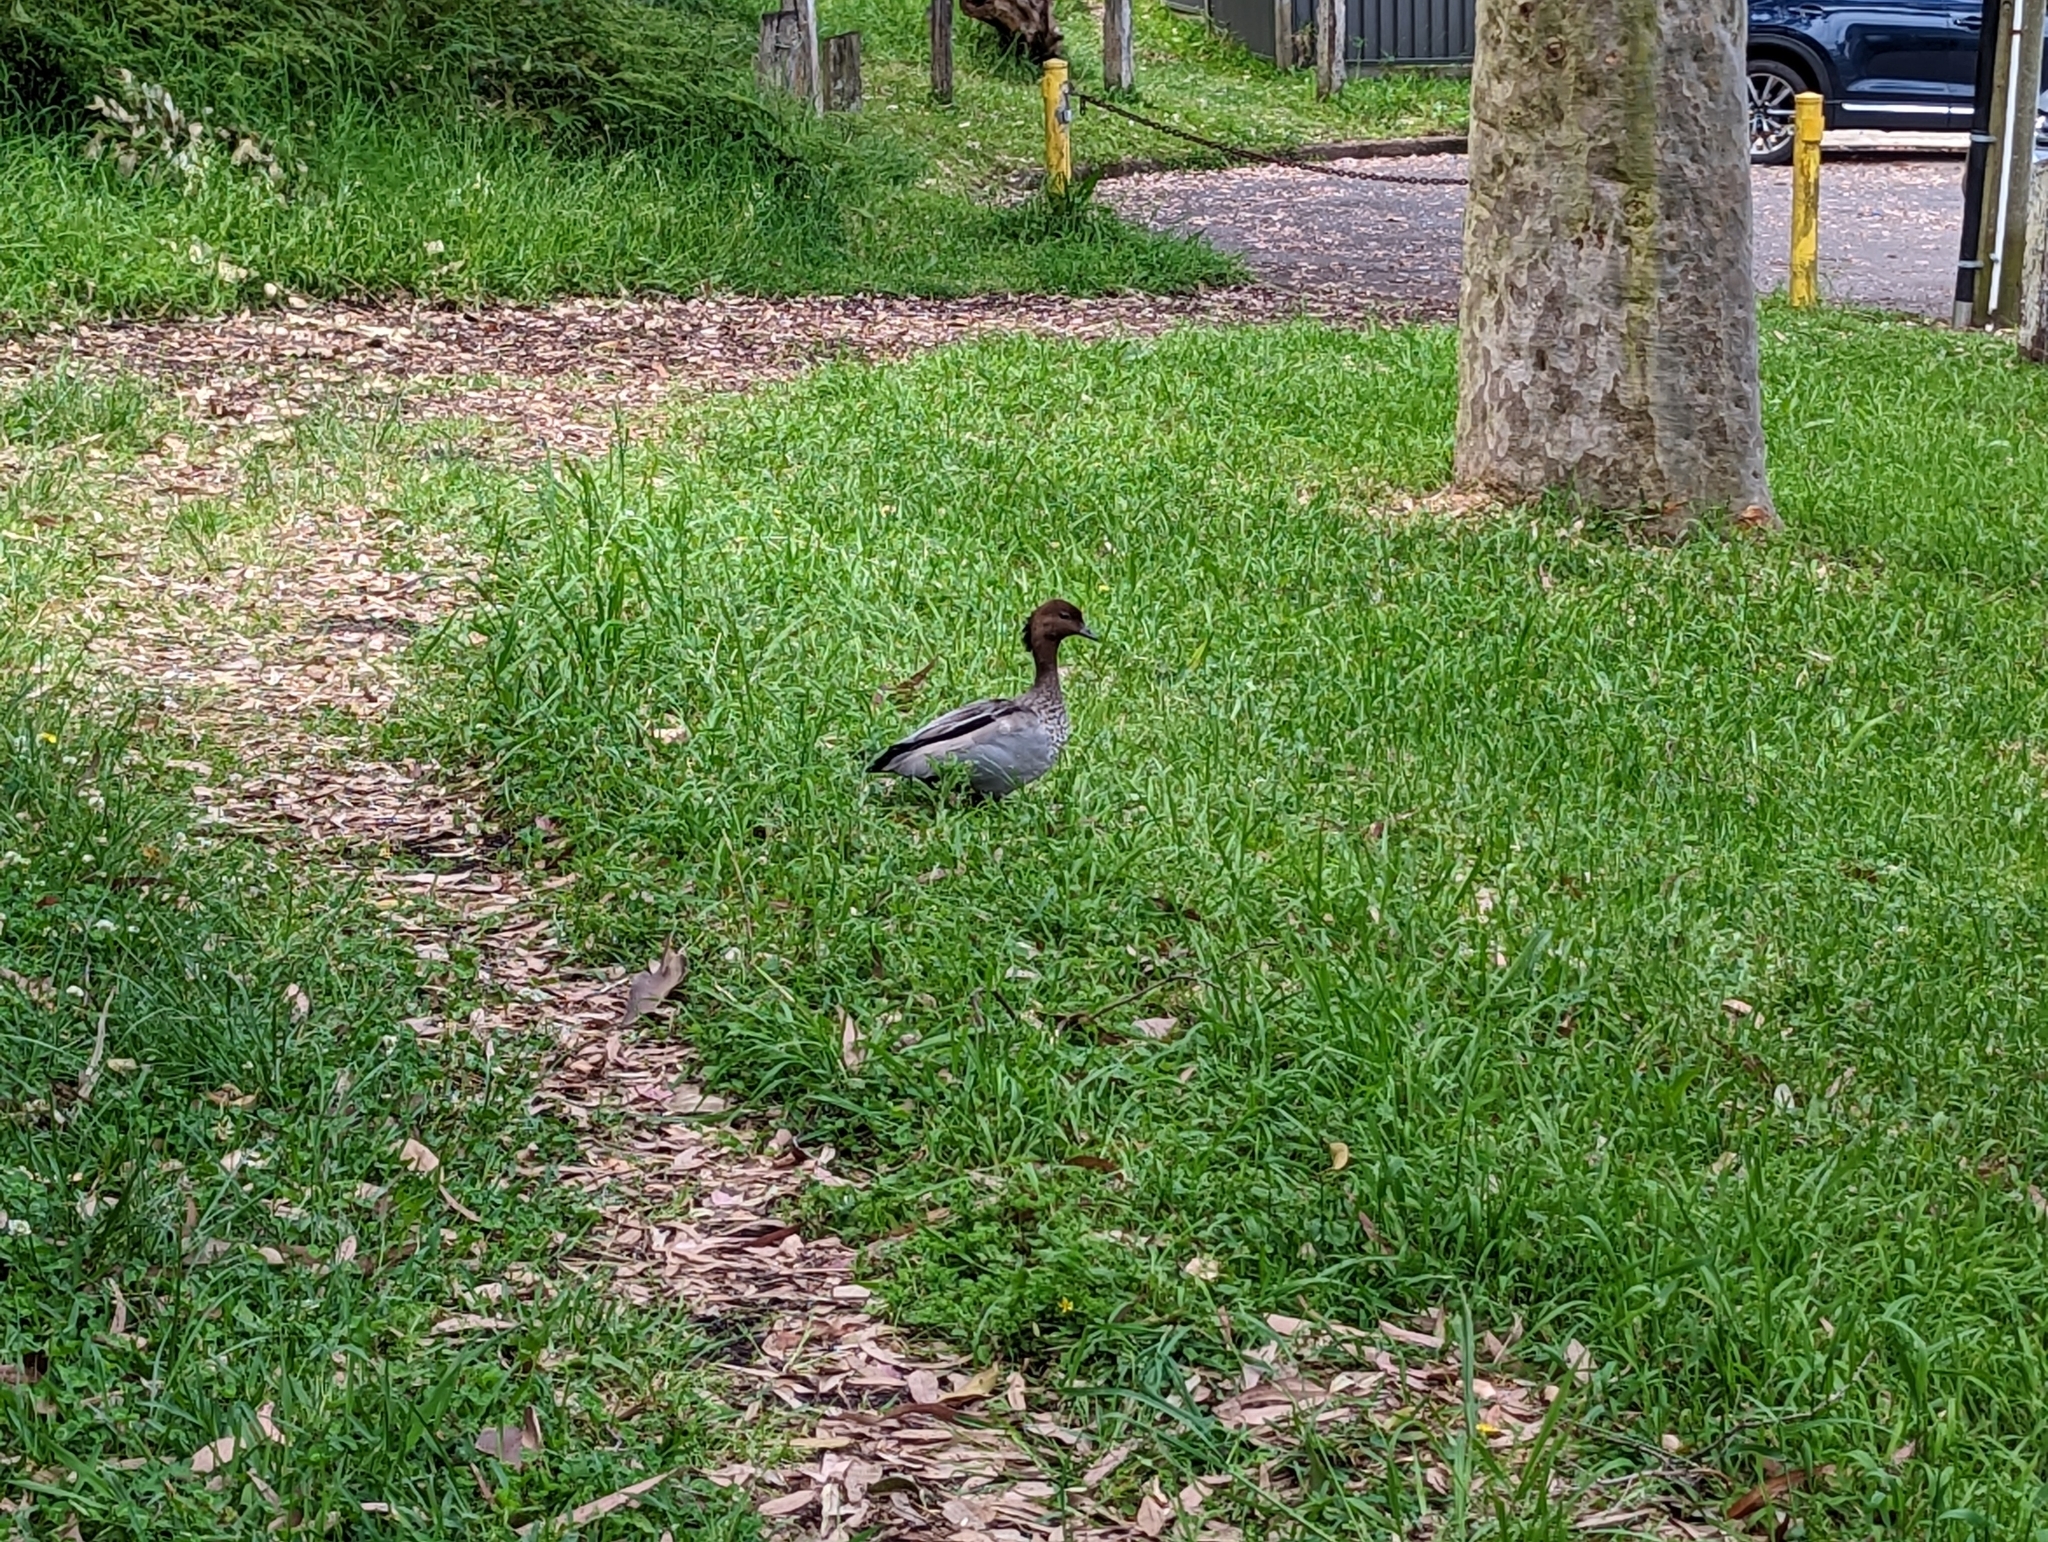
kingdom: Animalia
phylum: Chordata
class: Aves
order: Anseriformes
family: Anatidae
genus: Chenonetta
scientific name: Chenonetta jubata
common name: Maned duck
